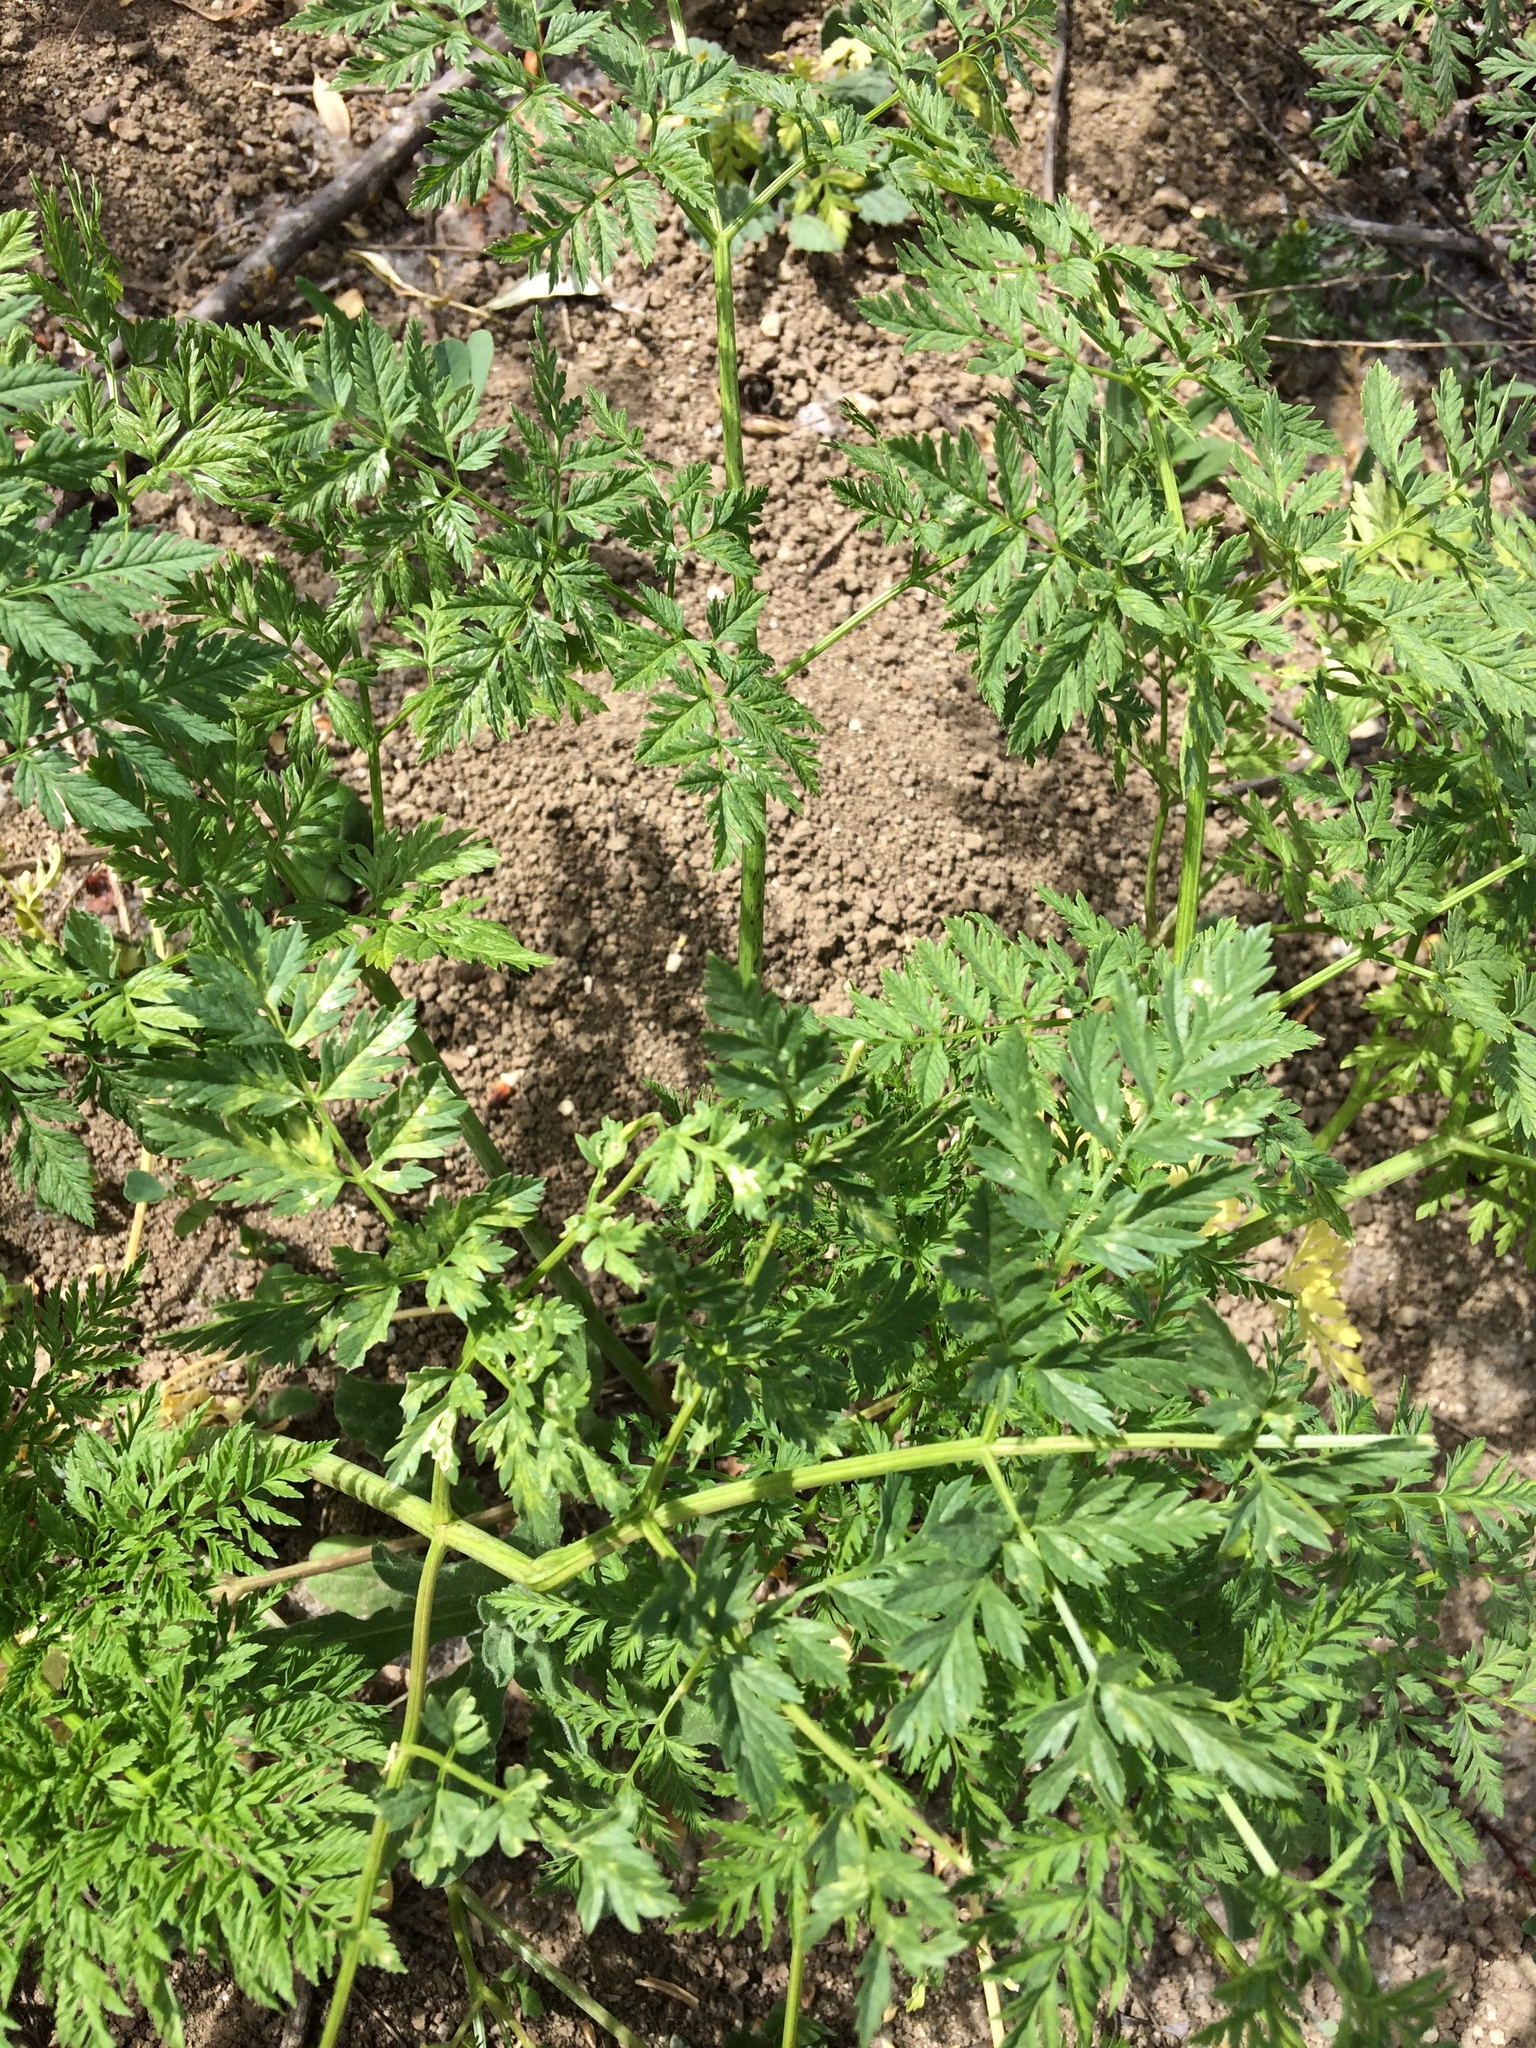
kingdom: Plantae
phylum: Tracheophyta
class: Magnoliopsida
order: Apiales
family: Apiaceae
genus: Conium
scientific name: Conium maculatum
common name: Hemlock
